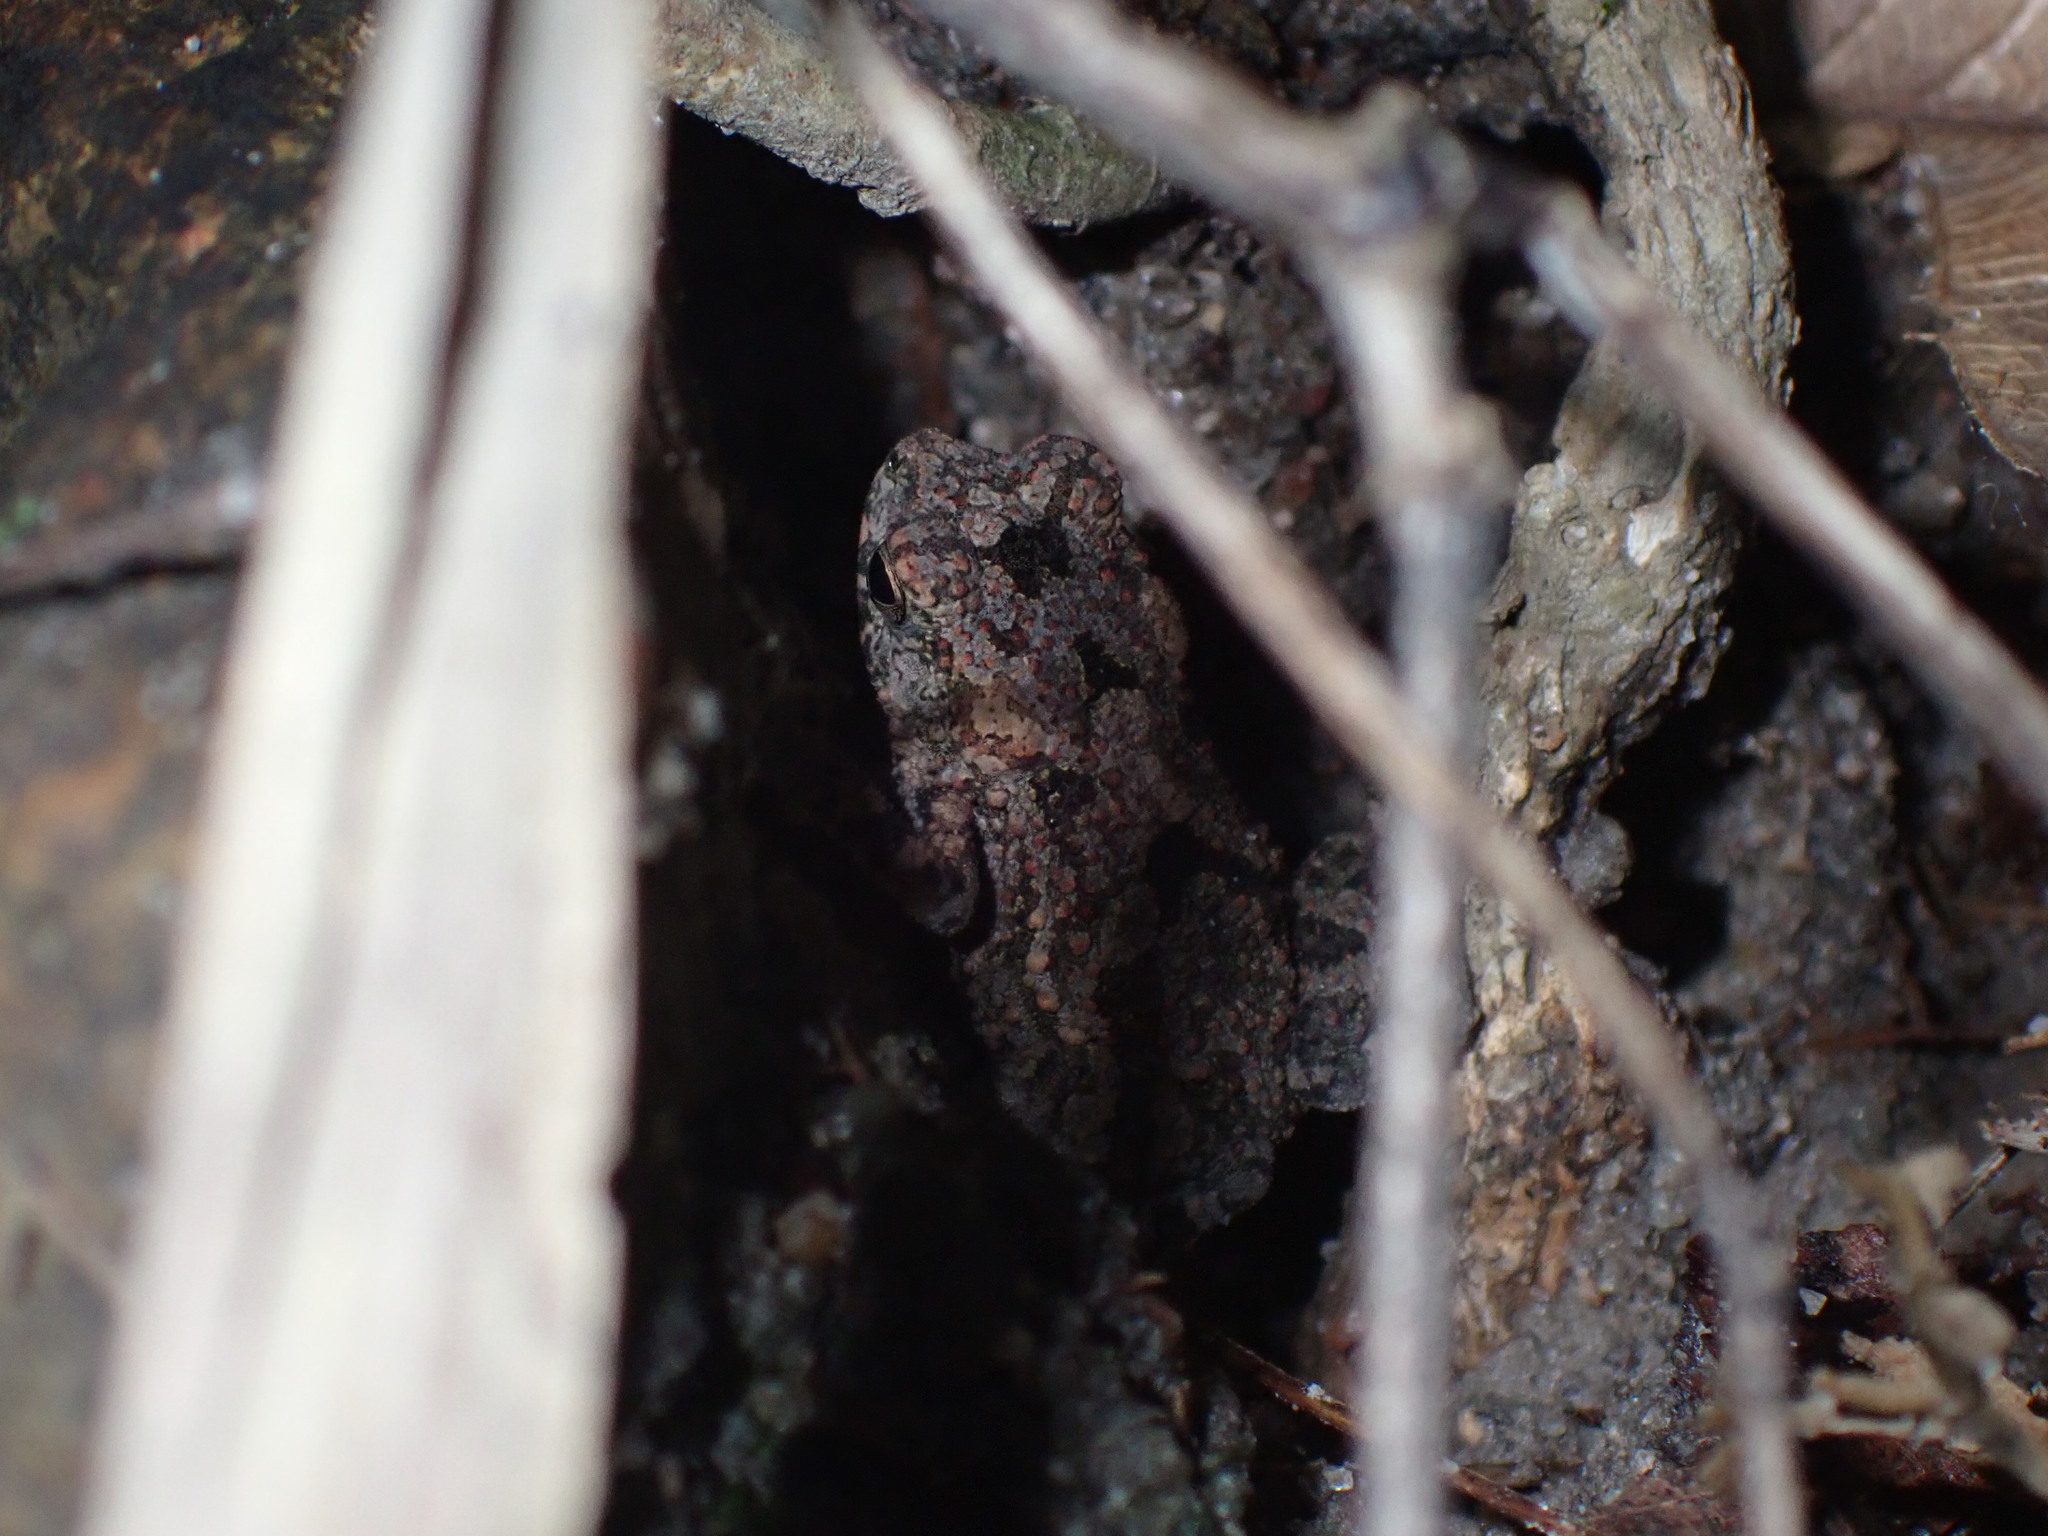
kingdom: Animalia
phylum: Chordata
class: Amphibia
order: Anura
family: Bufonidae
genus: Ingerophrynus
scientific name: Ingerophrynus macrotis
